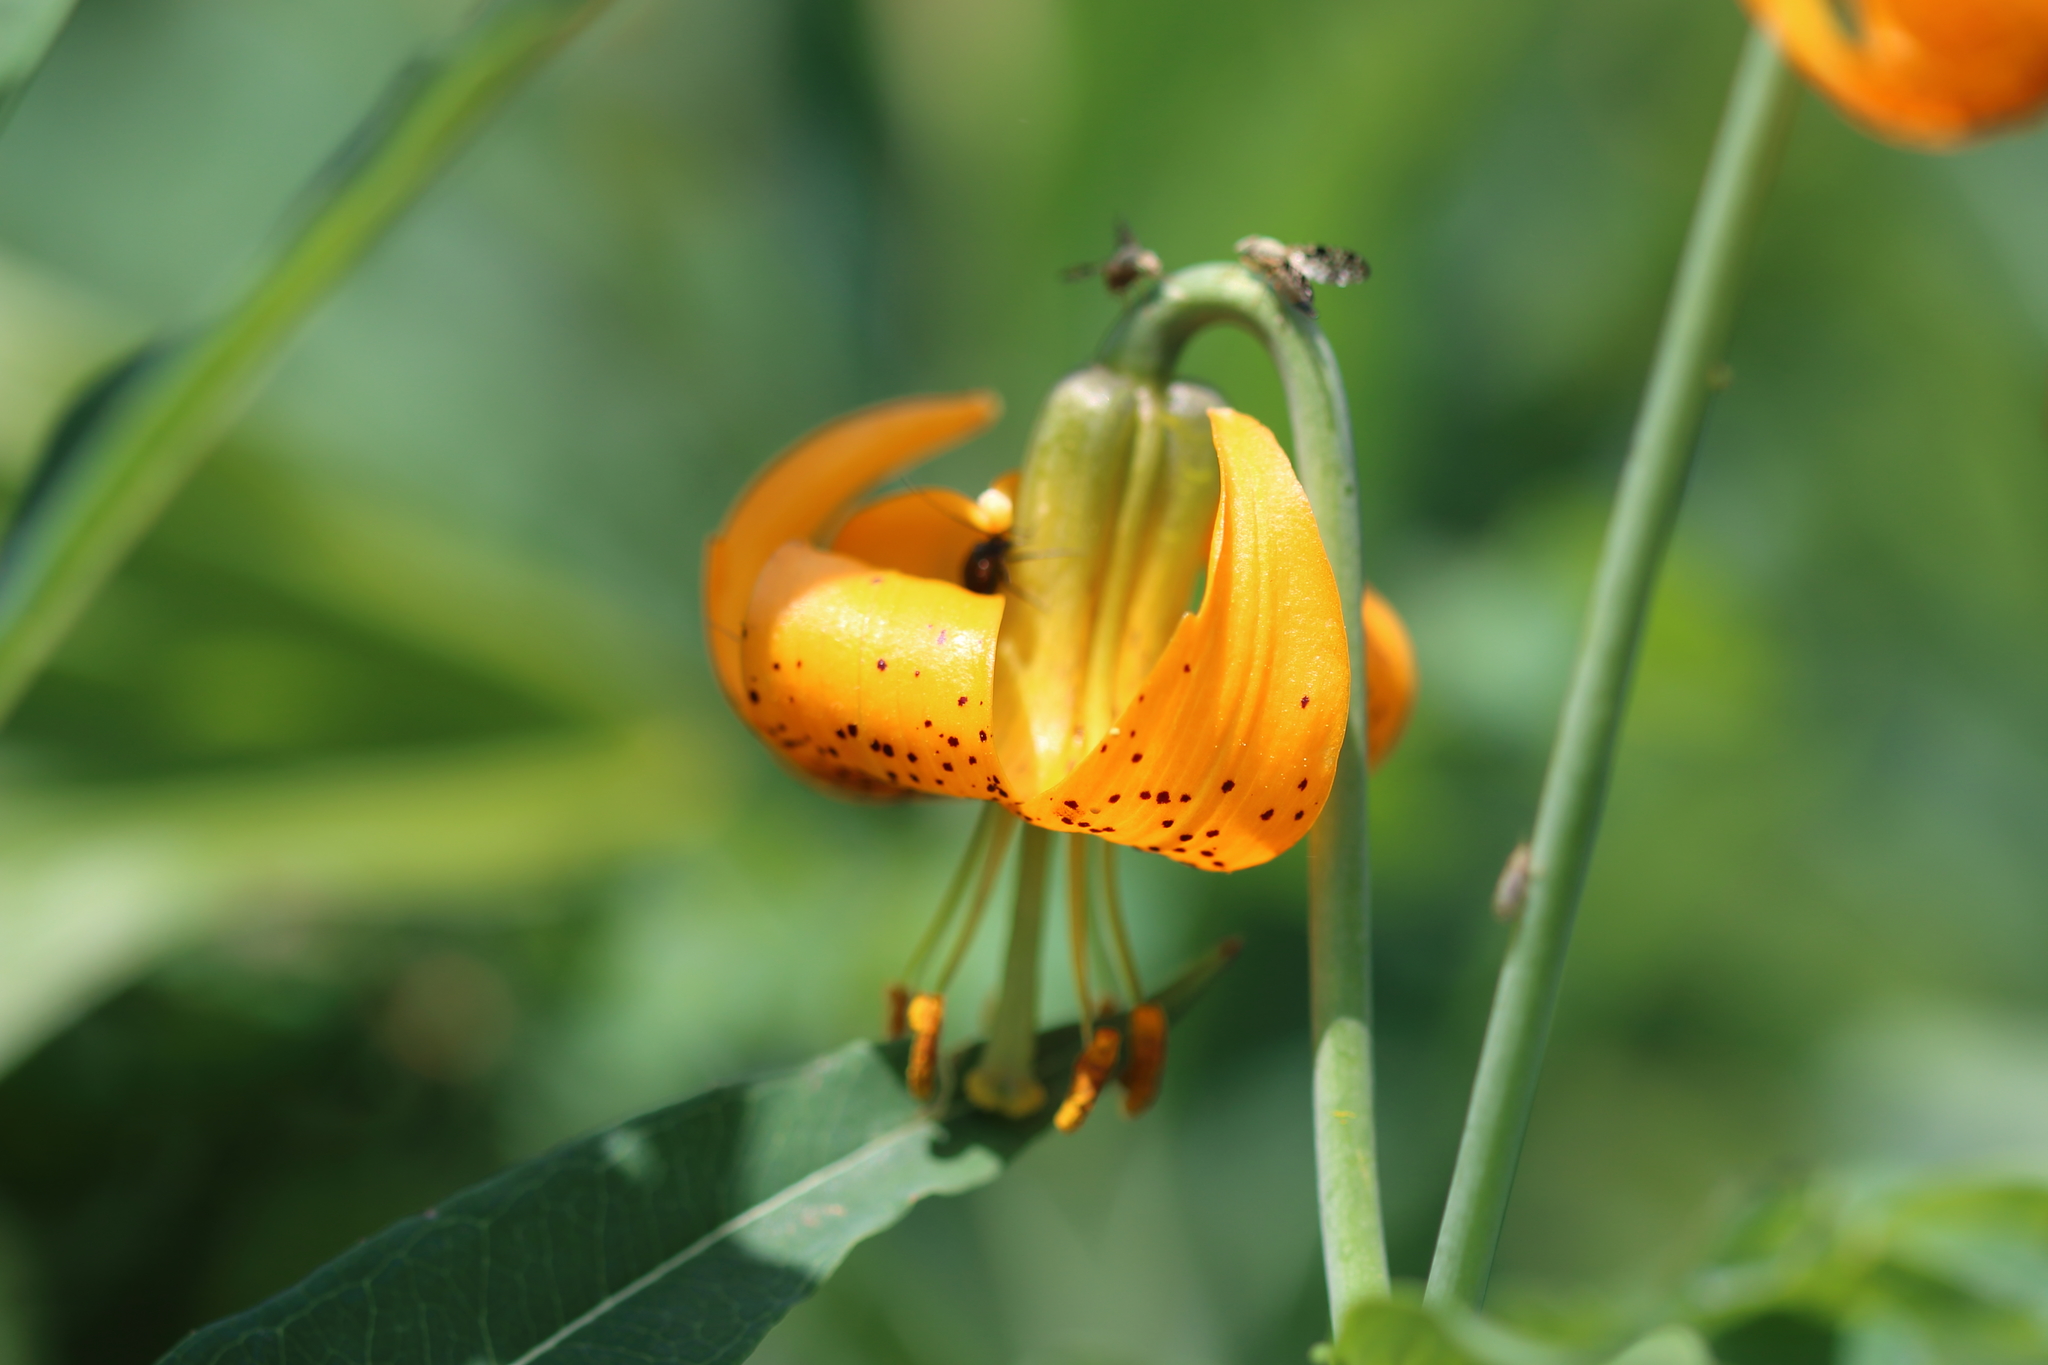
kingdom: Plantae
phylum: Tracheophyta
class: Liliopsida
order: Liliales
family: Liliaceae
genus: Lilium
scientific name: Lilium columbianum
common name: Columbia lily
